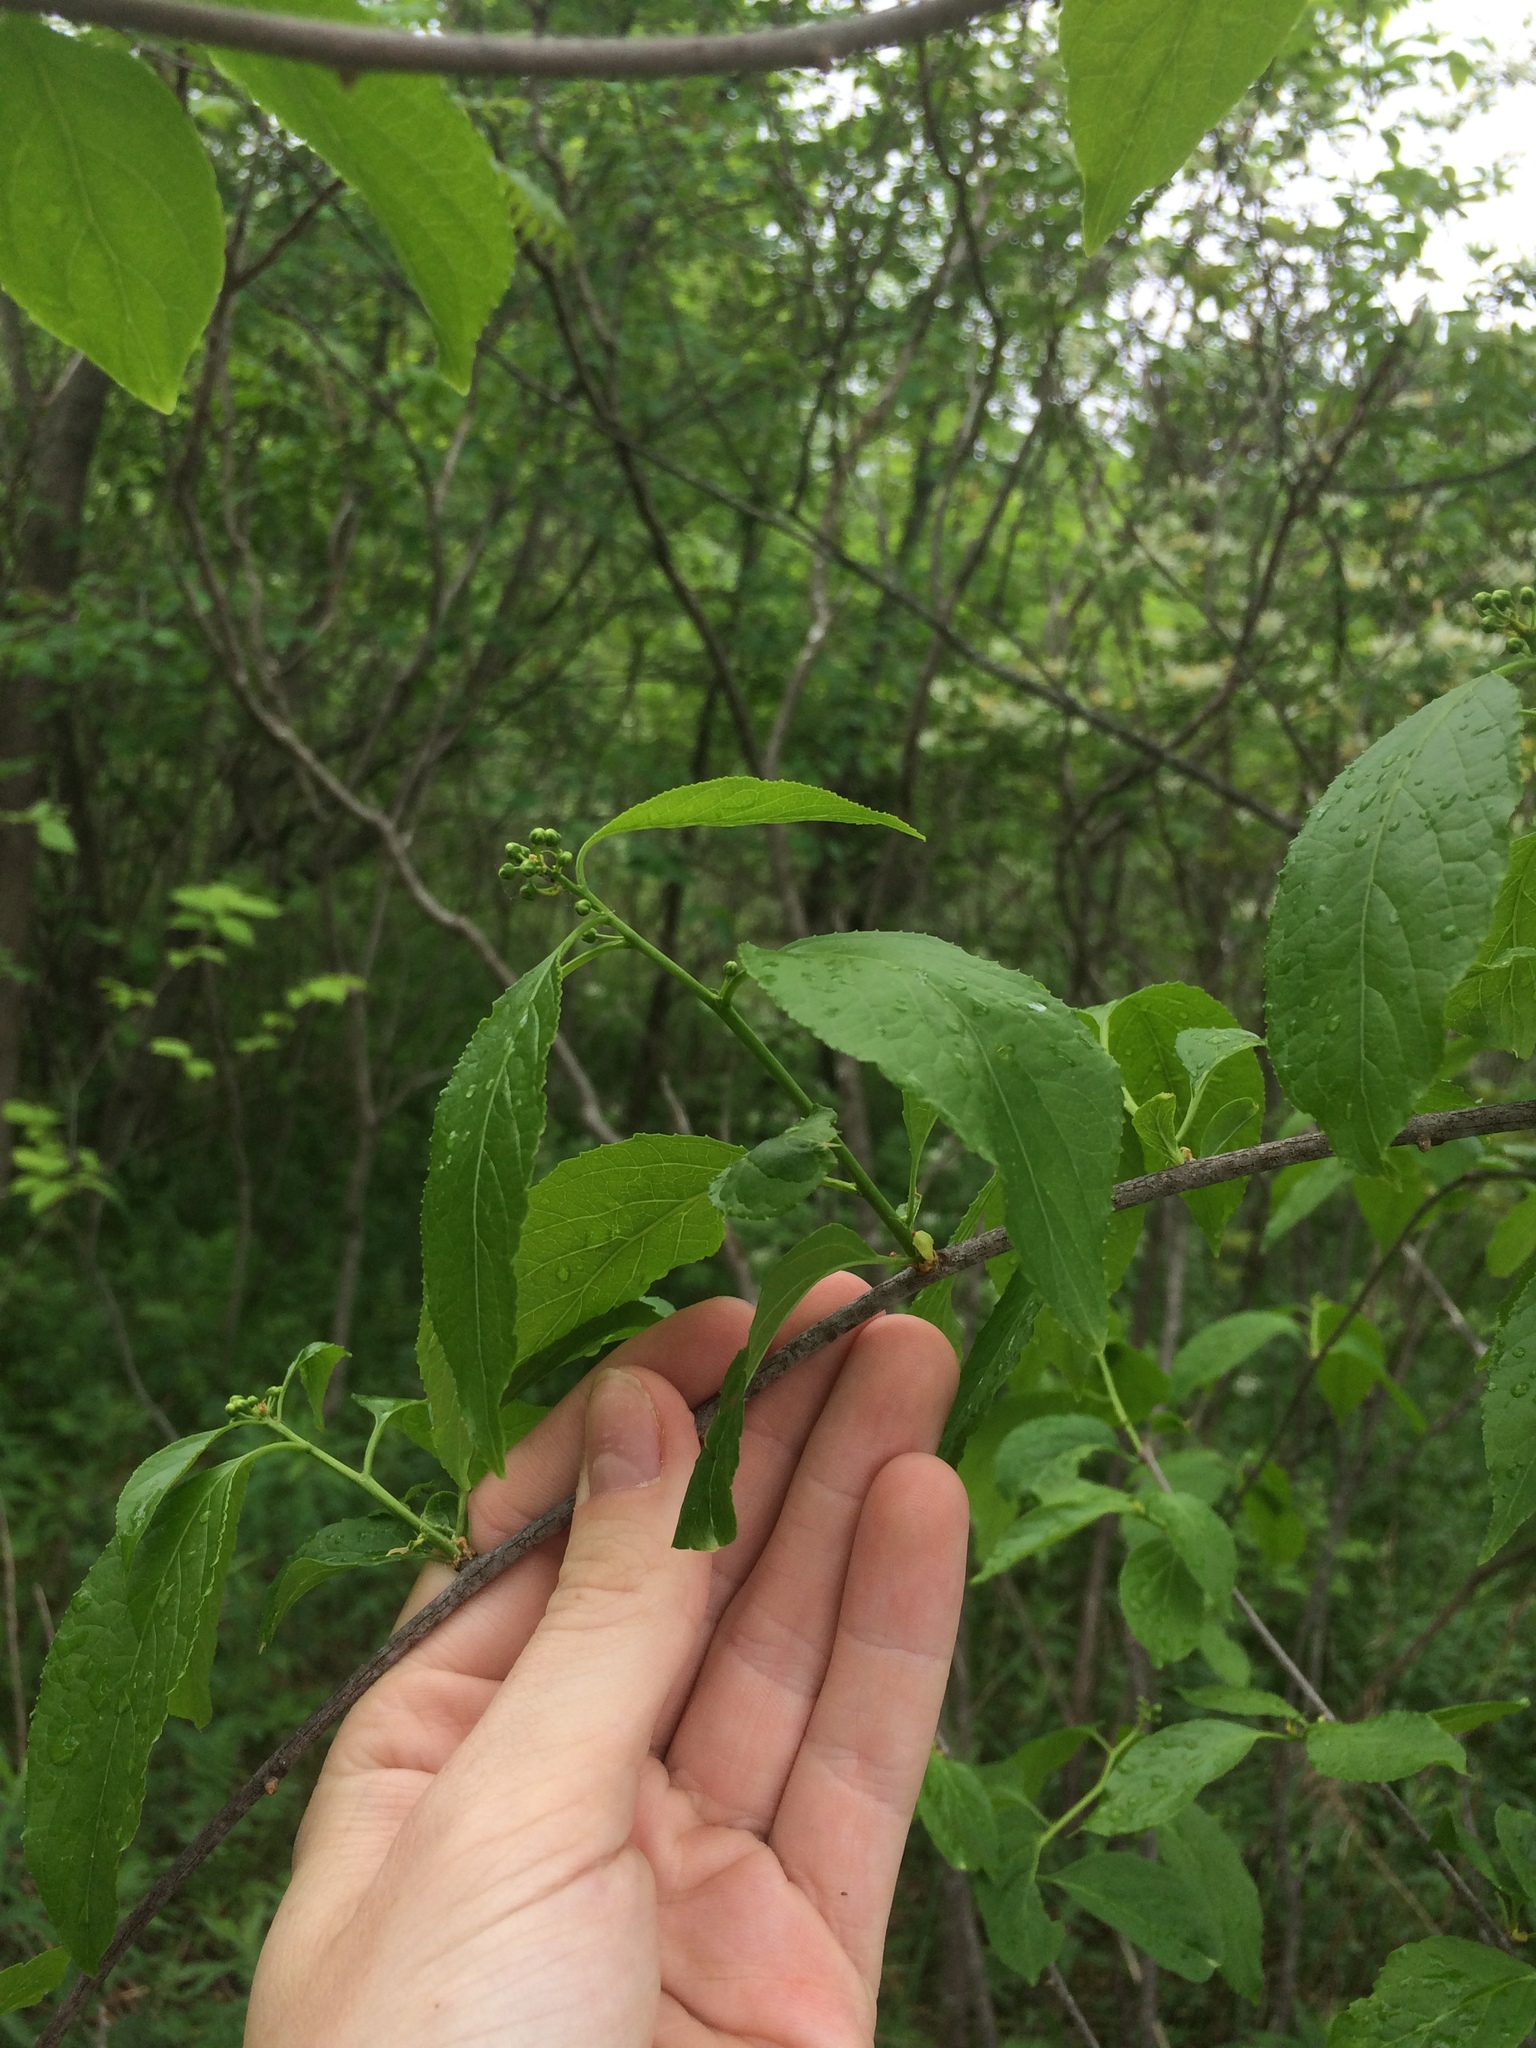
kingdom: Plantae
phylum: Tracheophyta
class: Magnoliopsida
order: Celastrales
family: Celastraceae
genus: Celastrus
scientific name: Celastrus scandens
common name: American bittersweet
